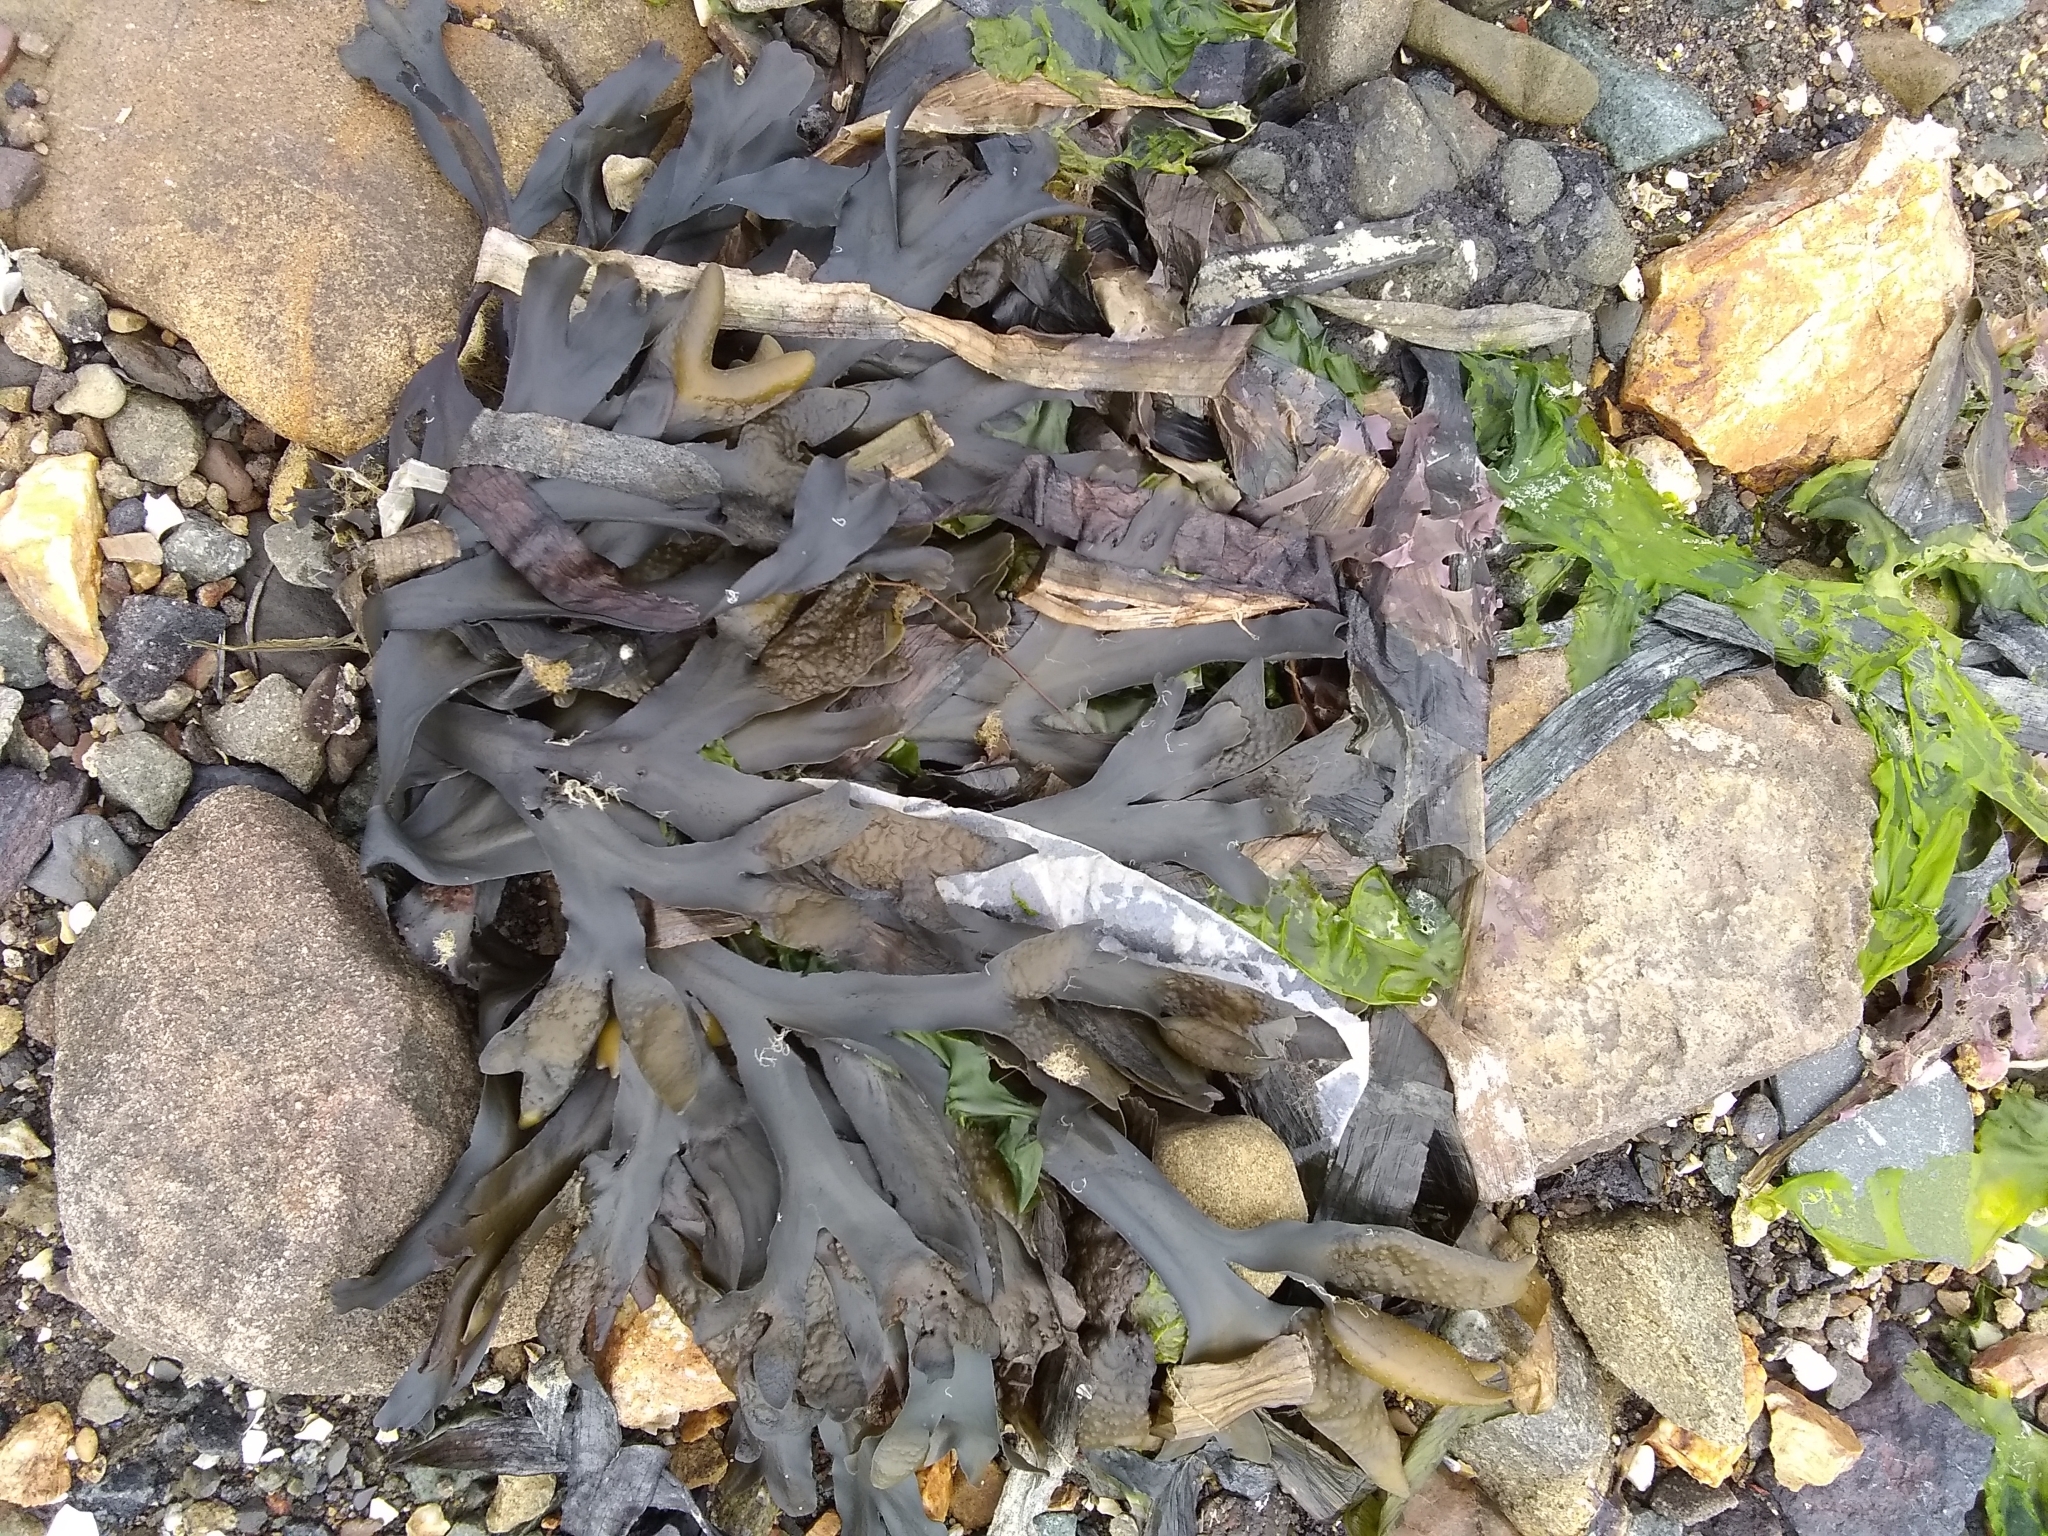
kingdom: Chromista
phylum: Ochrophyta
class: Phaeophyceae
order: Fucales
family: Fucaceae
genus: Fucus
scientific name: Fucus distichus
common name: Rockweed
